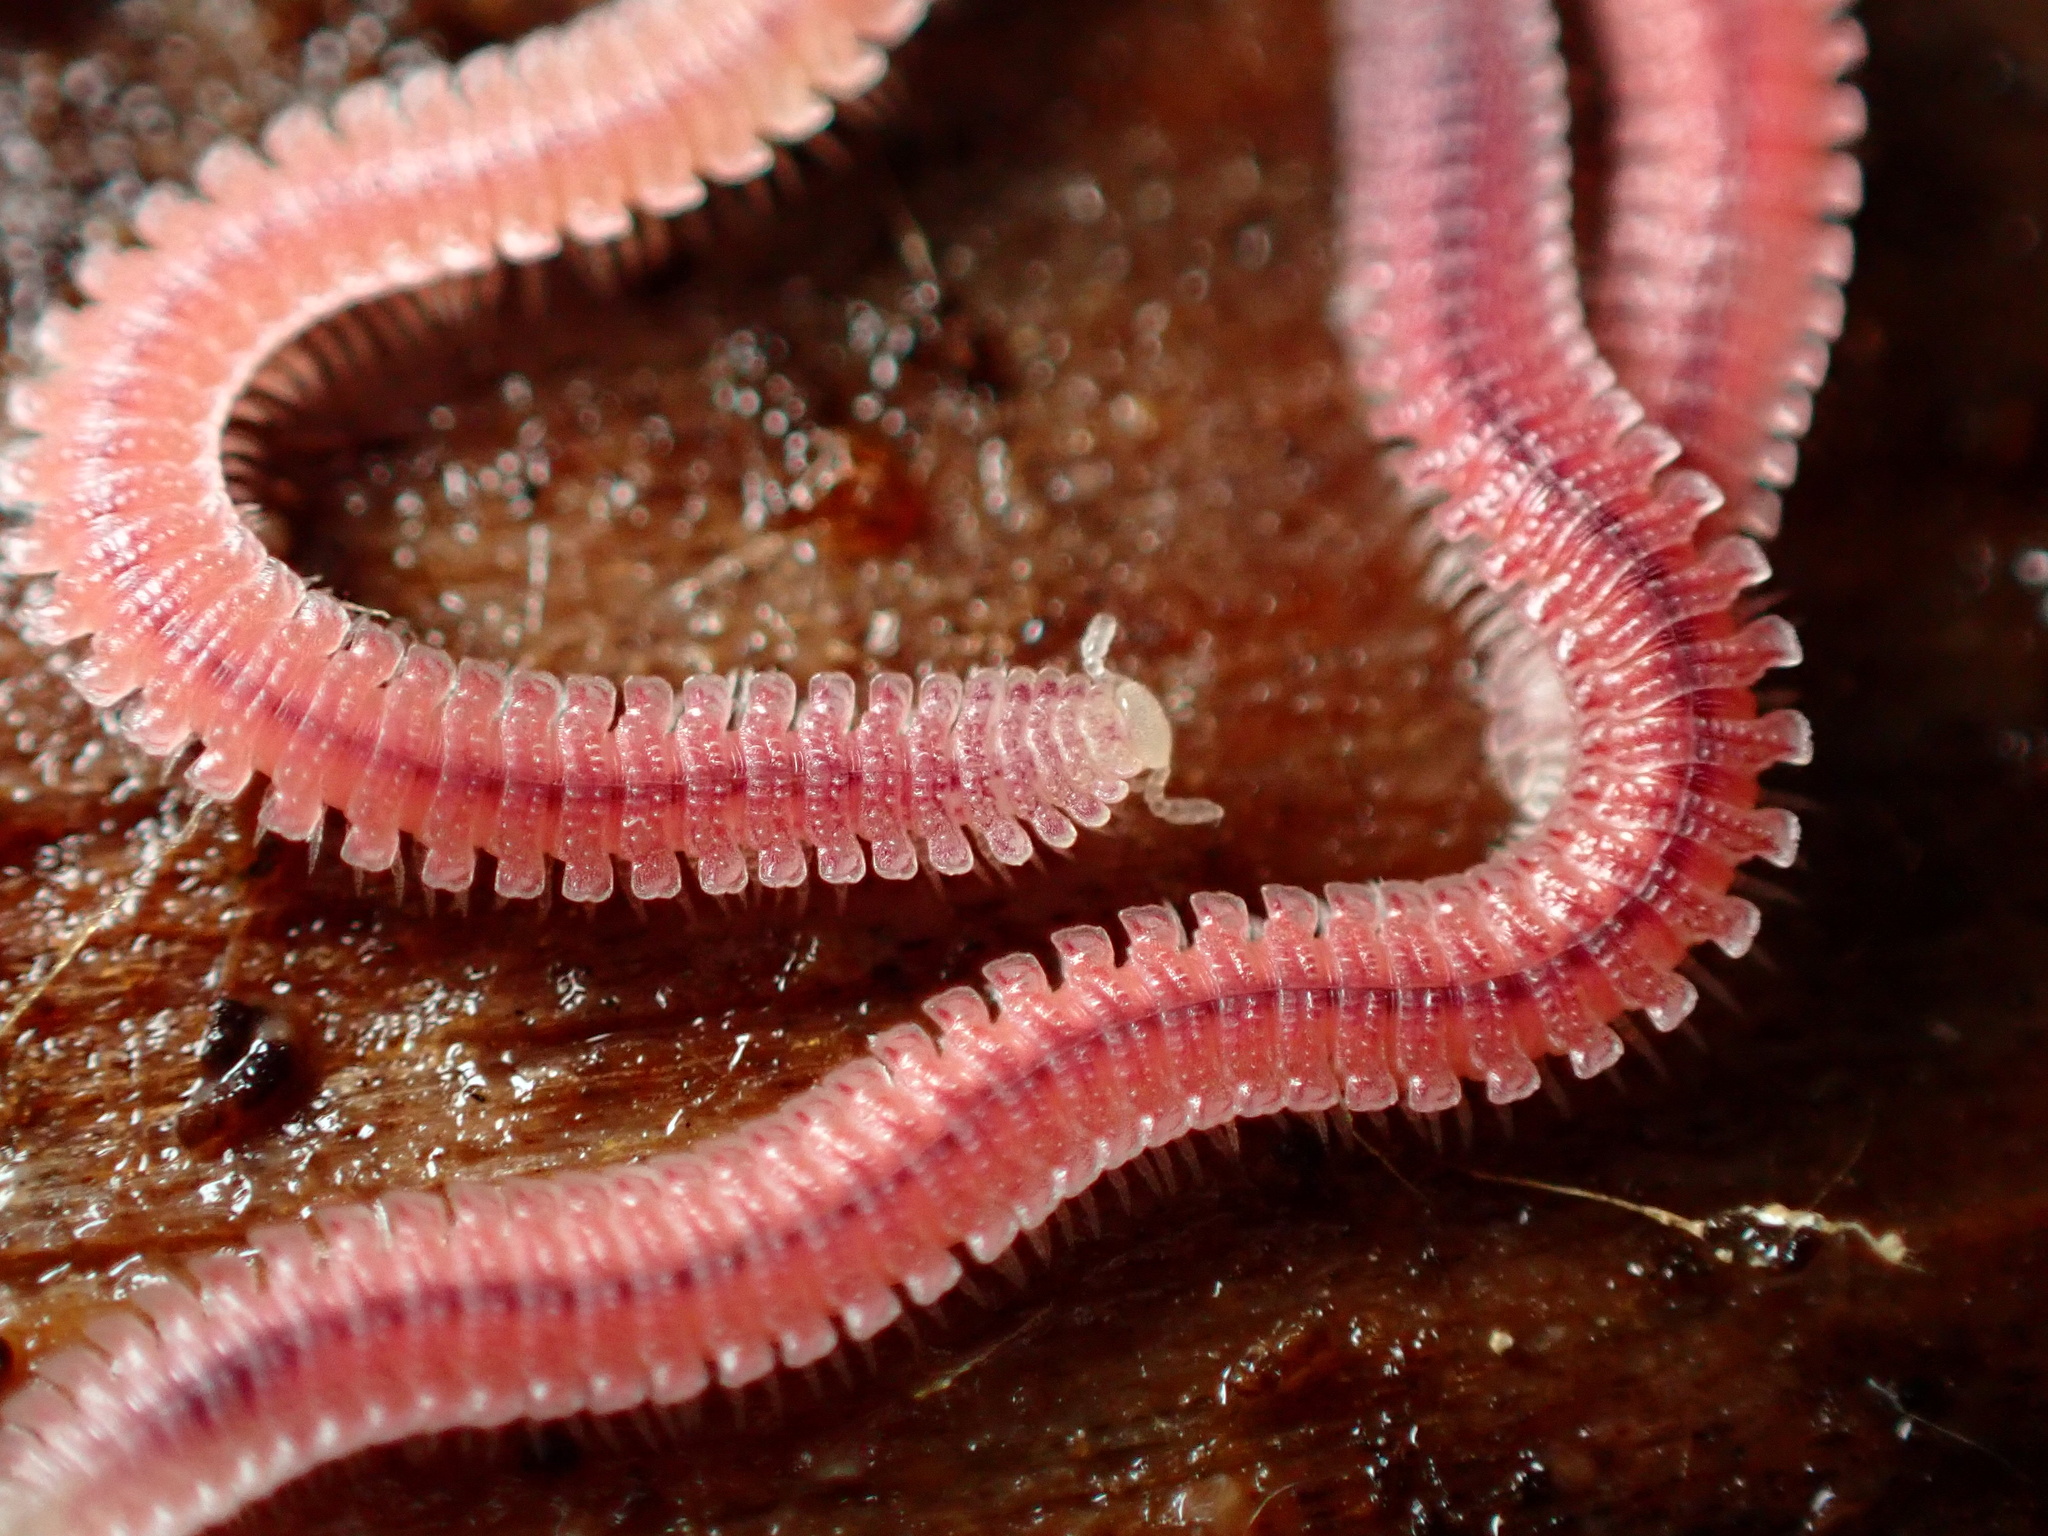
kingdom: Animalia
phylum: Arthropoda
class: Diplopoda
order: Platydesmida
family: Andrognathidae
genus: Gosodesmus
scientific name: Gosodesmus claremontus
